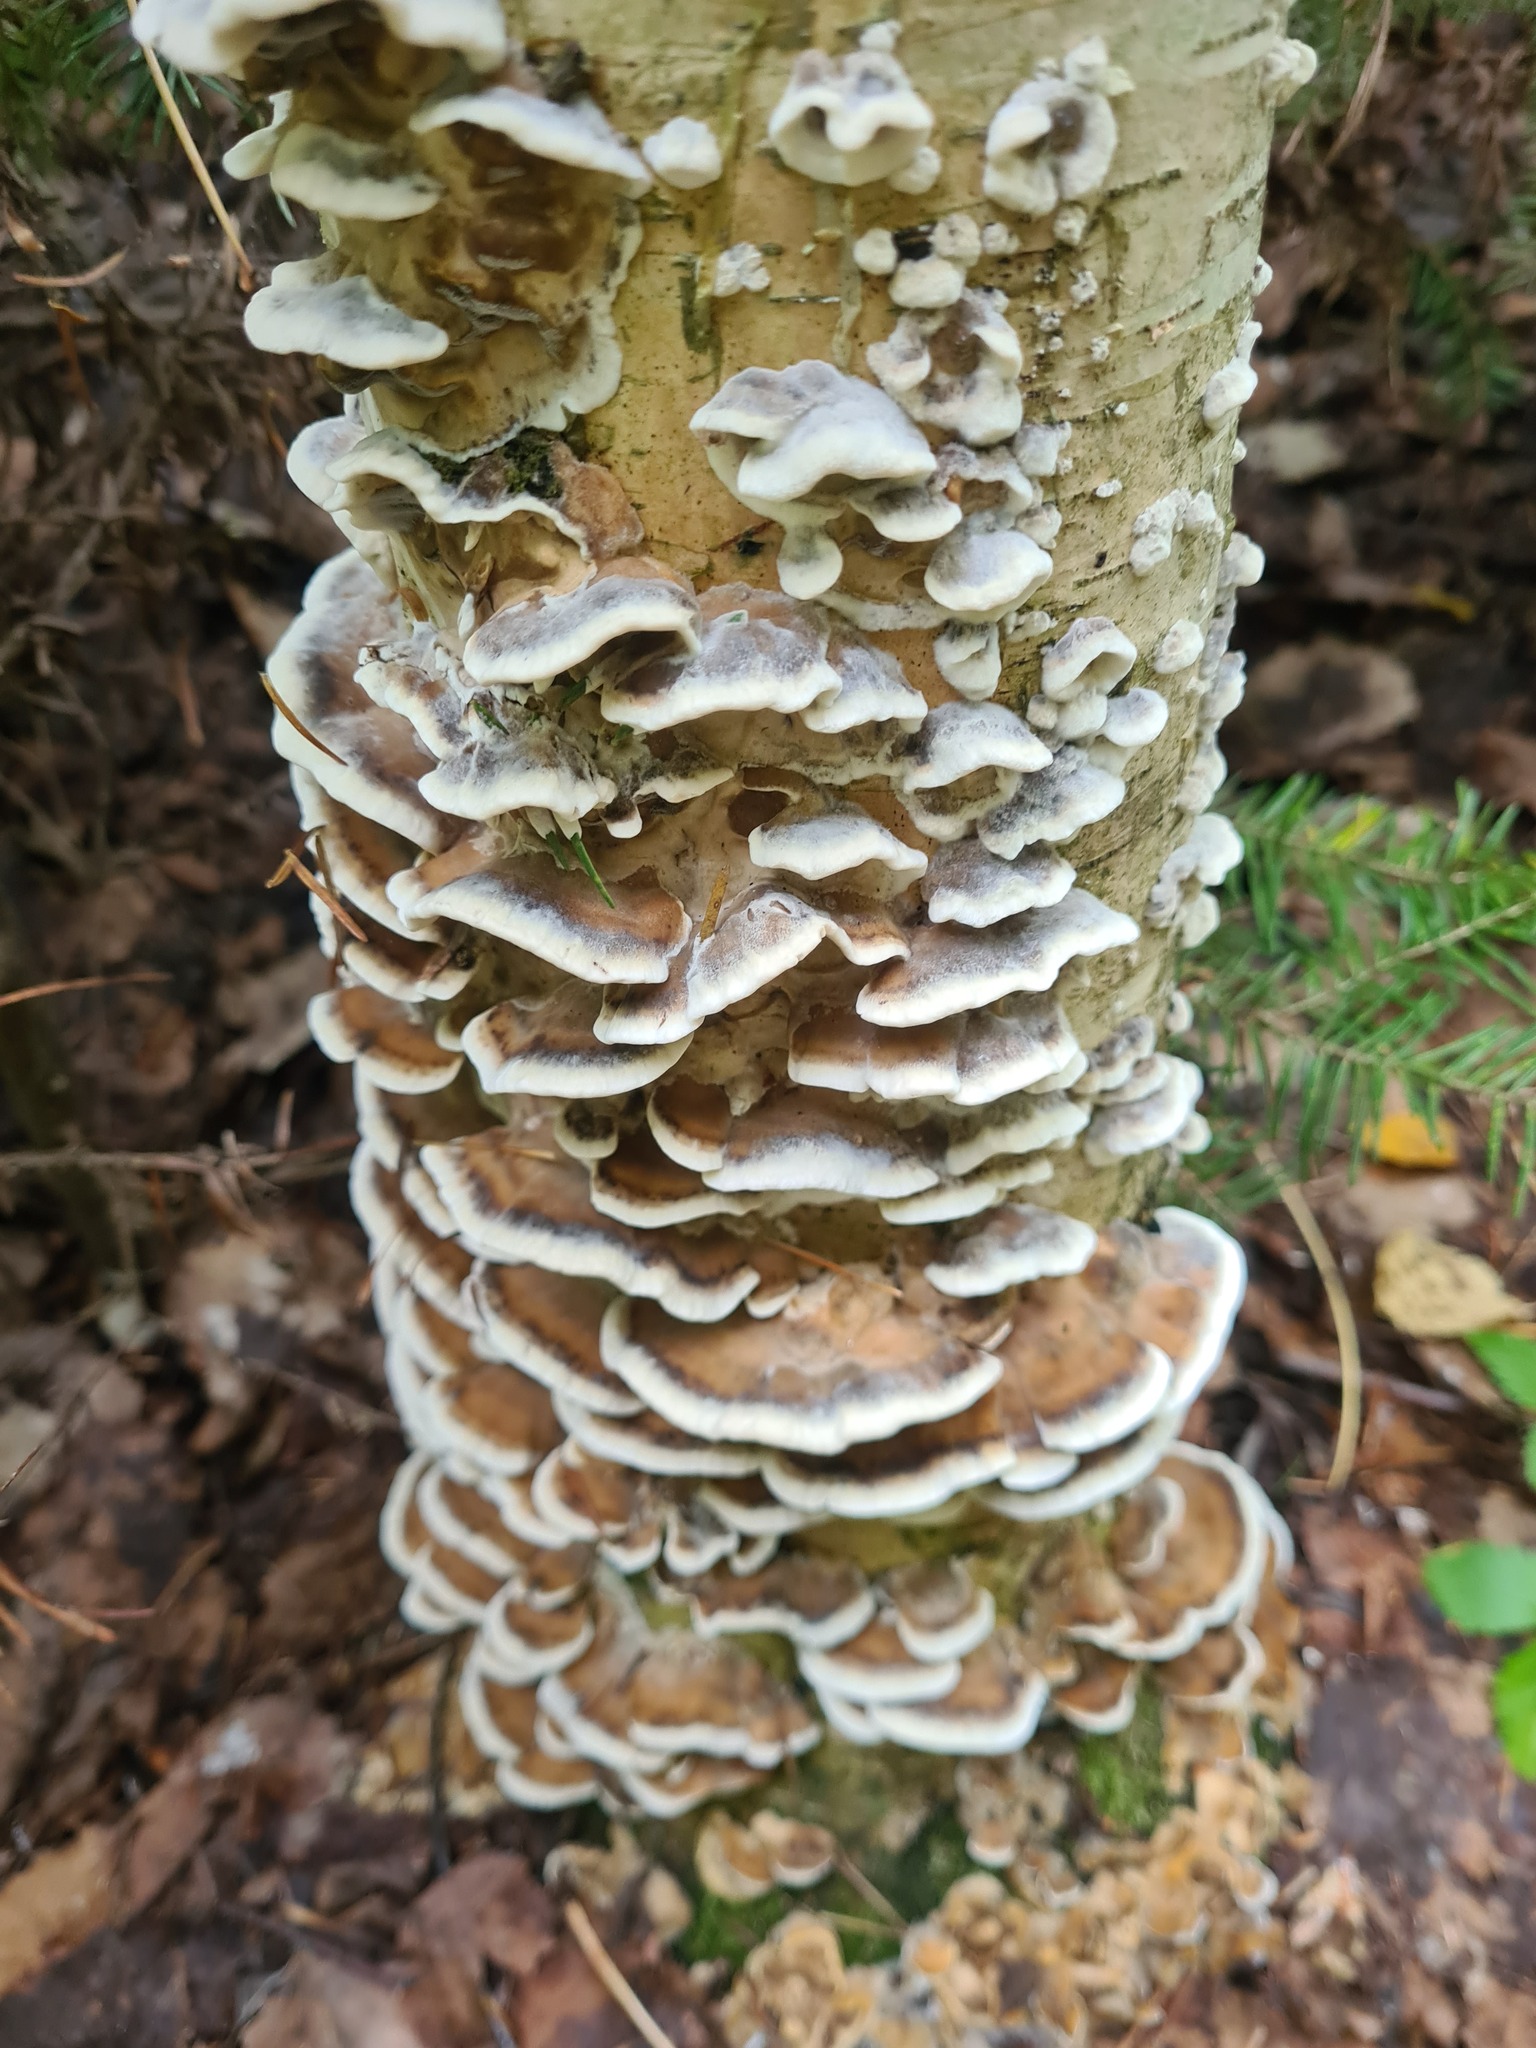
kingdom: Fungi
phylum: Basidiomycota
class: Agaricomycetes
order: Polyporales
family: Phanerochaetaceae
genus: Bjerkandera
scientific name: Bjerkandera adusta
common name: Smoky bracket
